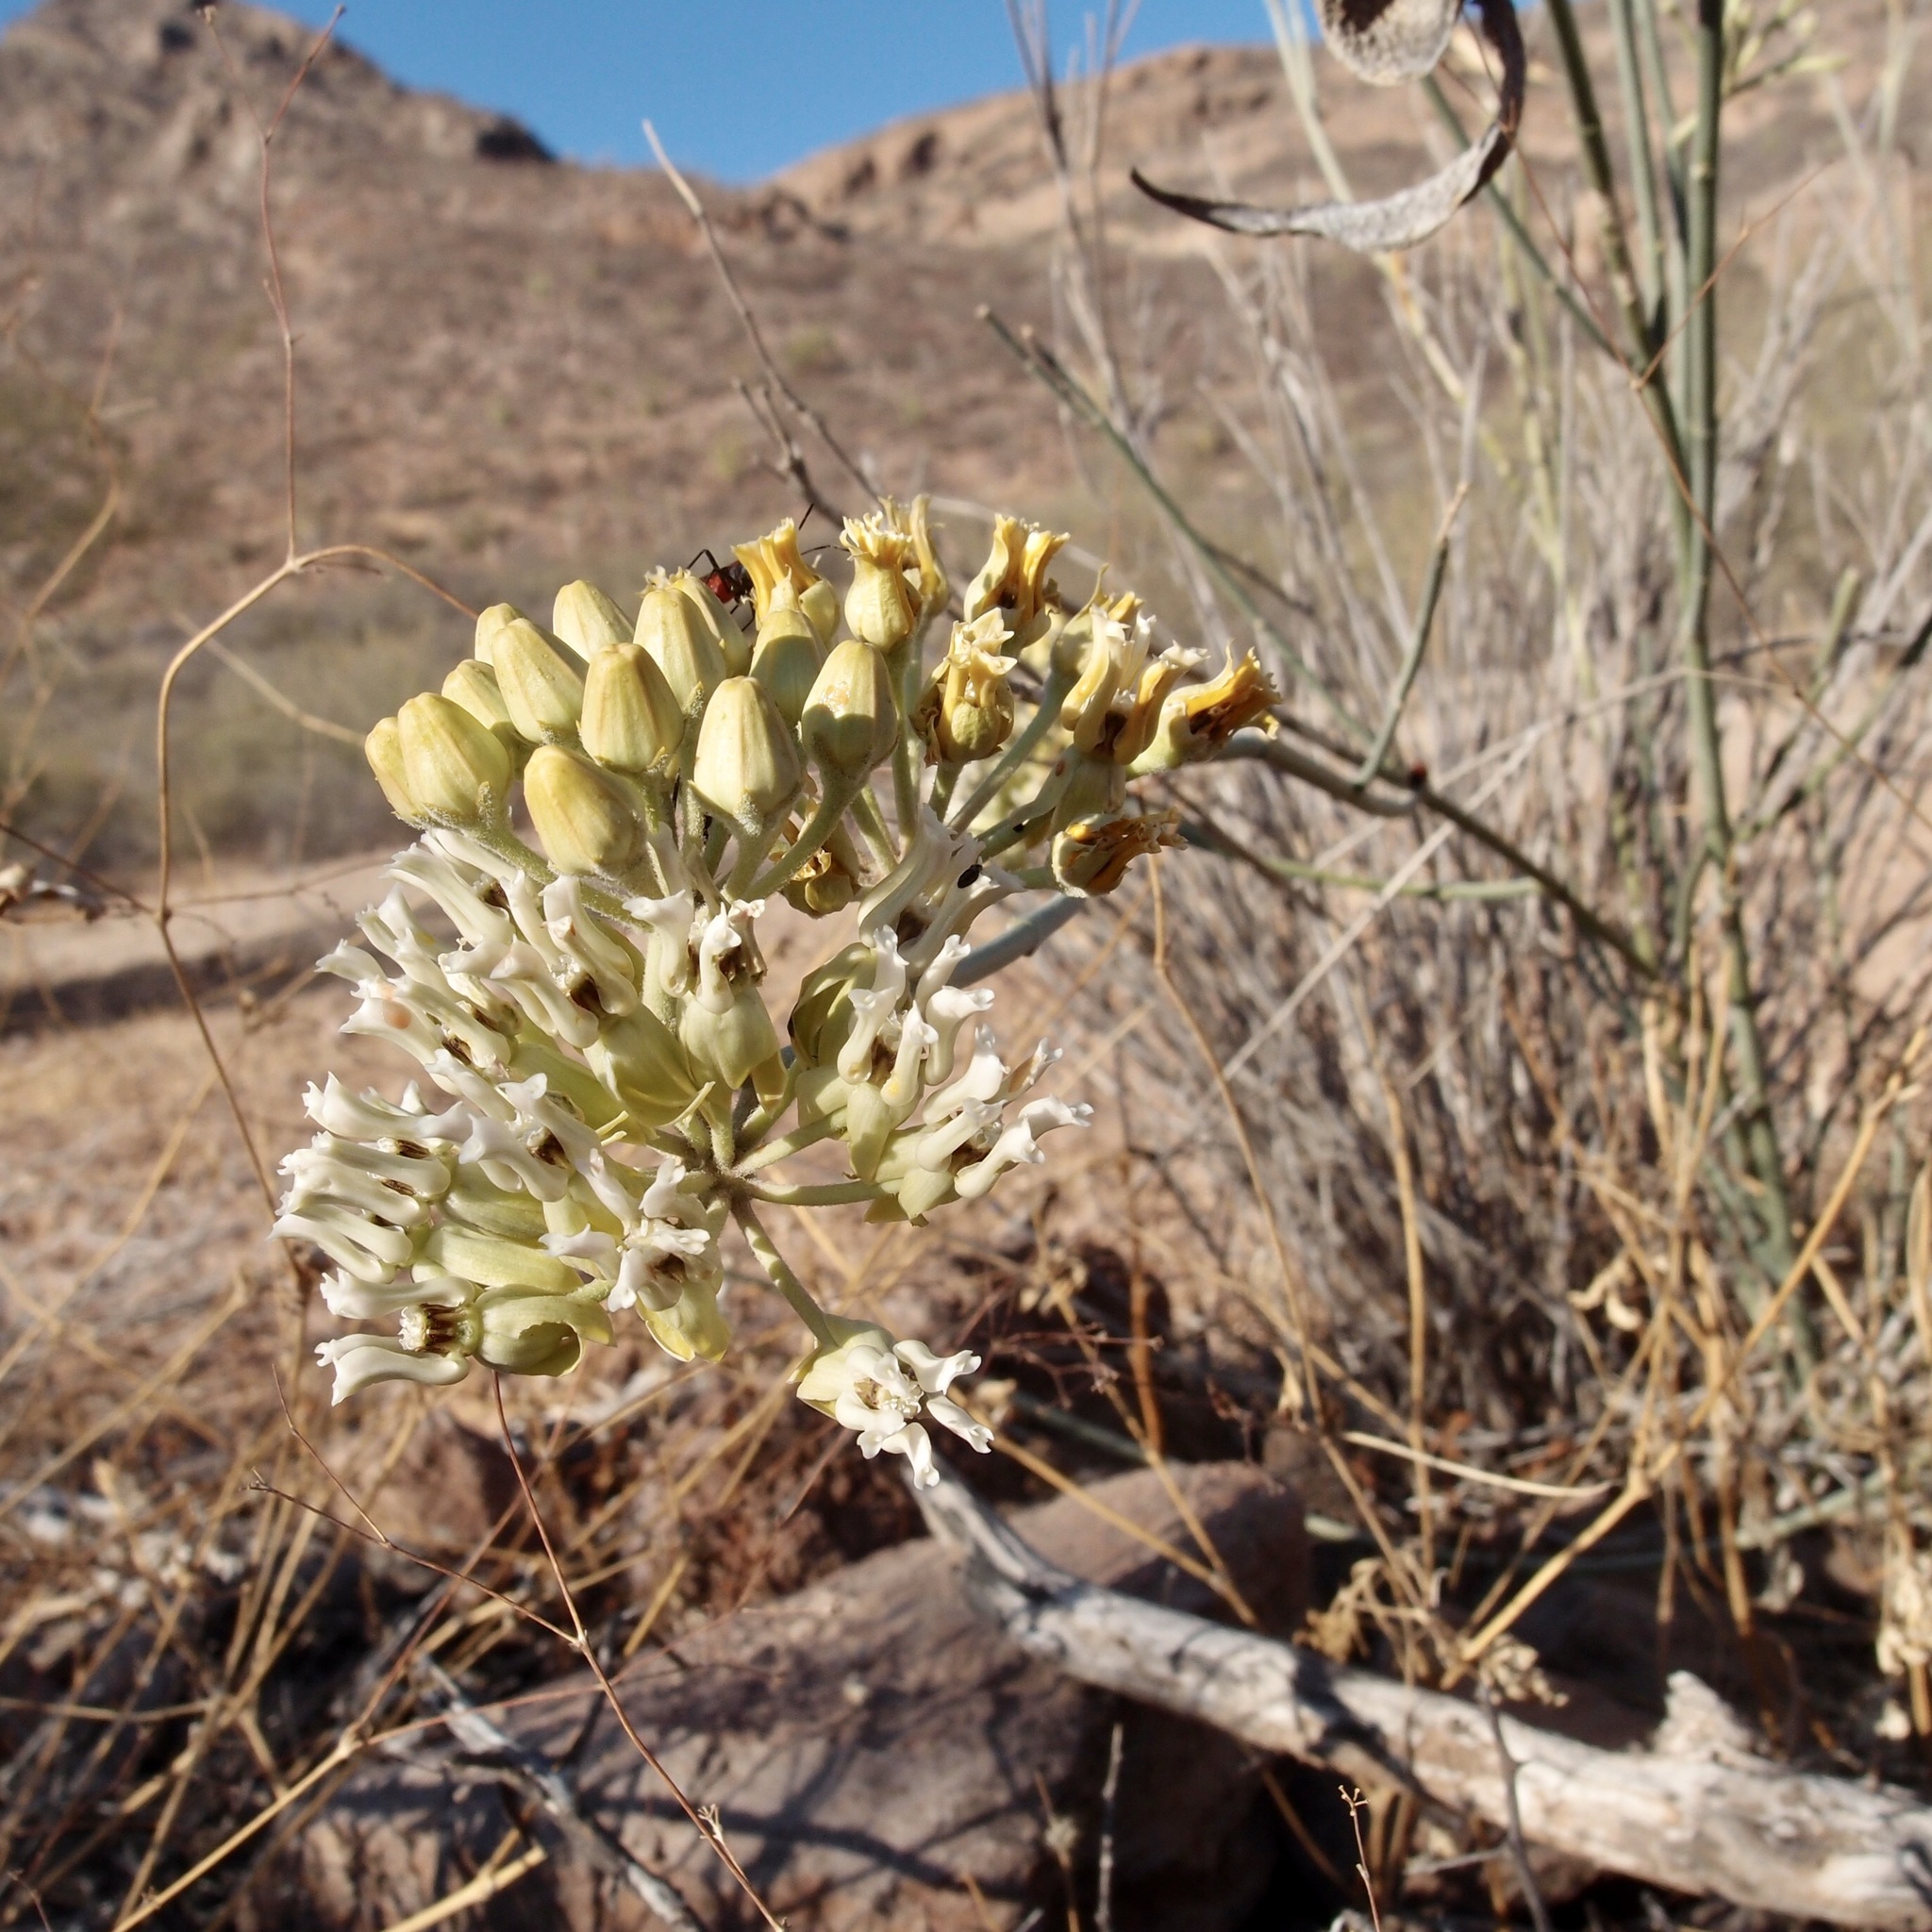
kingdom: Plantae
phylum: Tracheophyta
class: Magnoliopsida
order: Gentianales
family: Apocynaceae
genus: Asclepias
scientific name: Asclepias subulata
